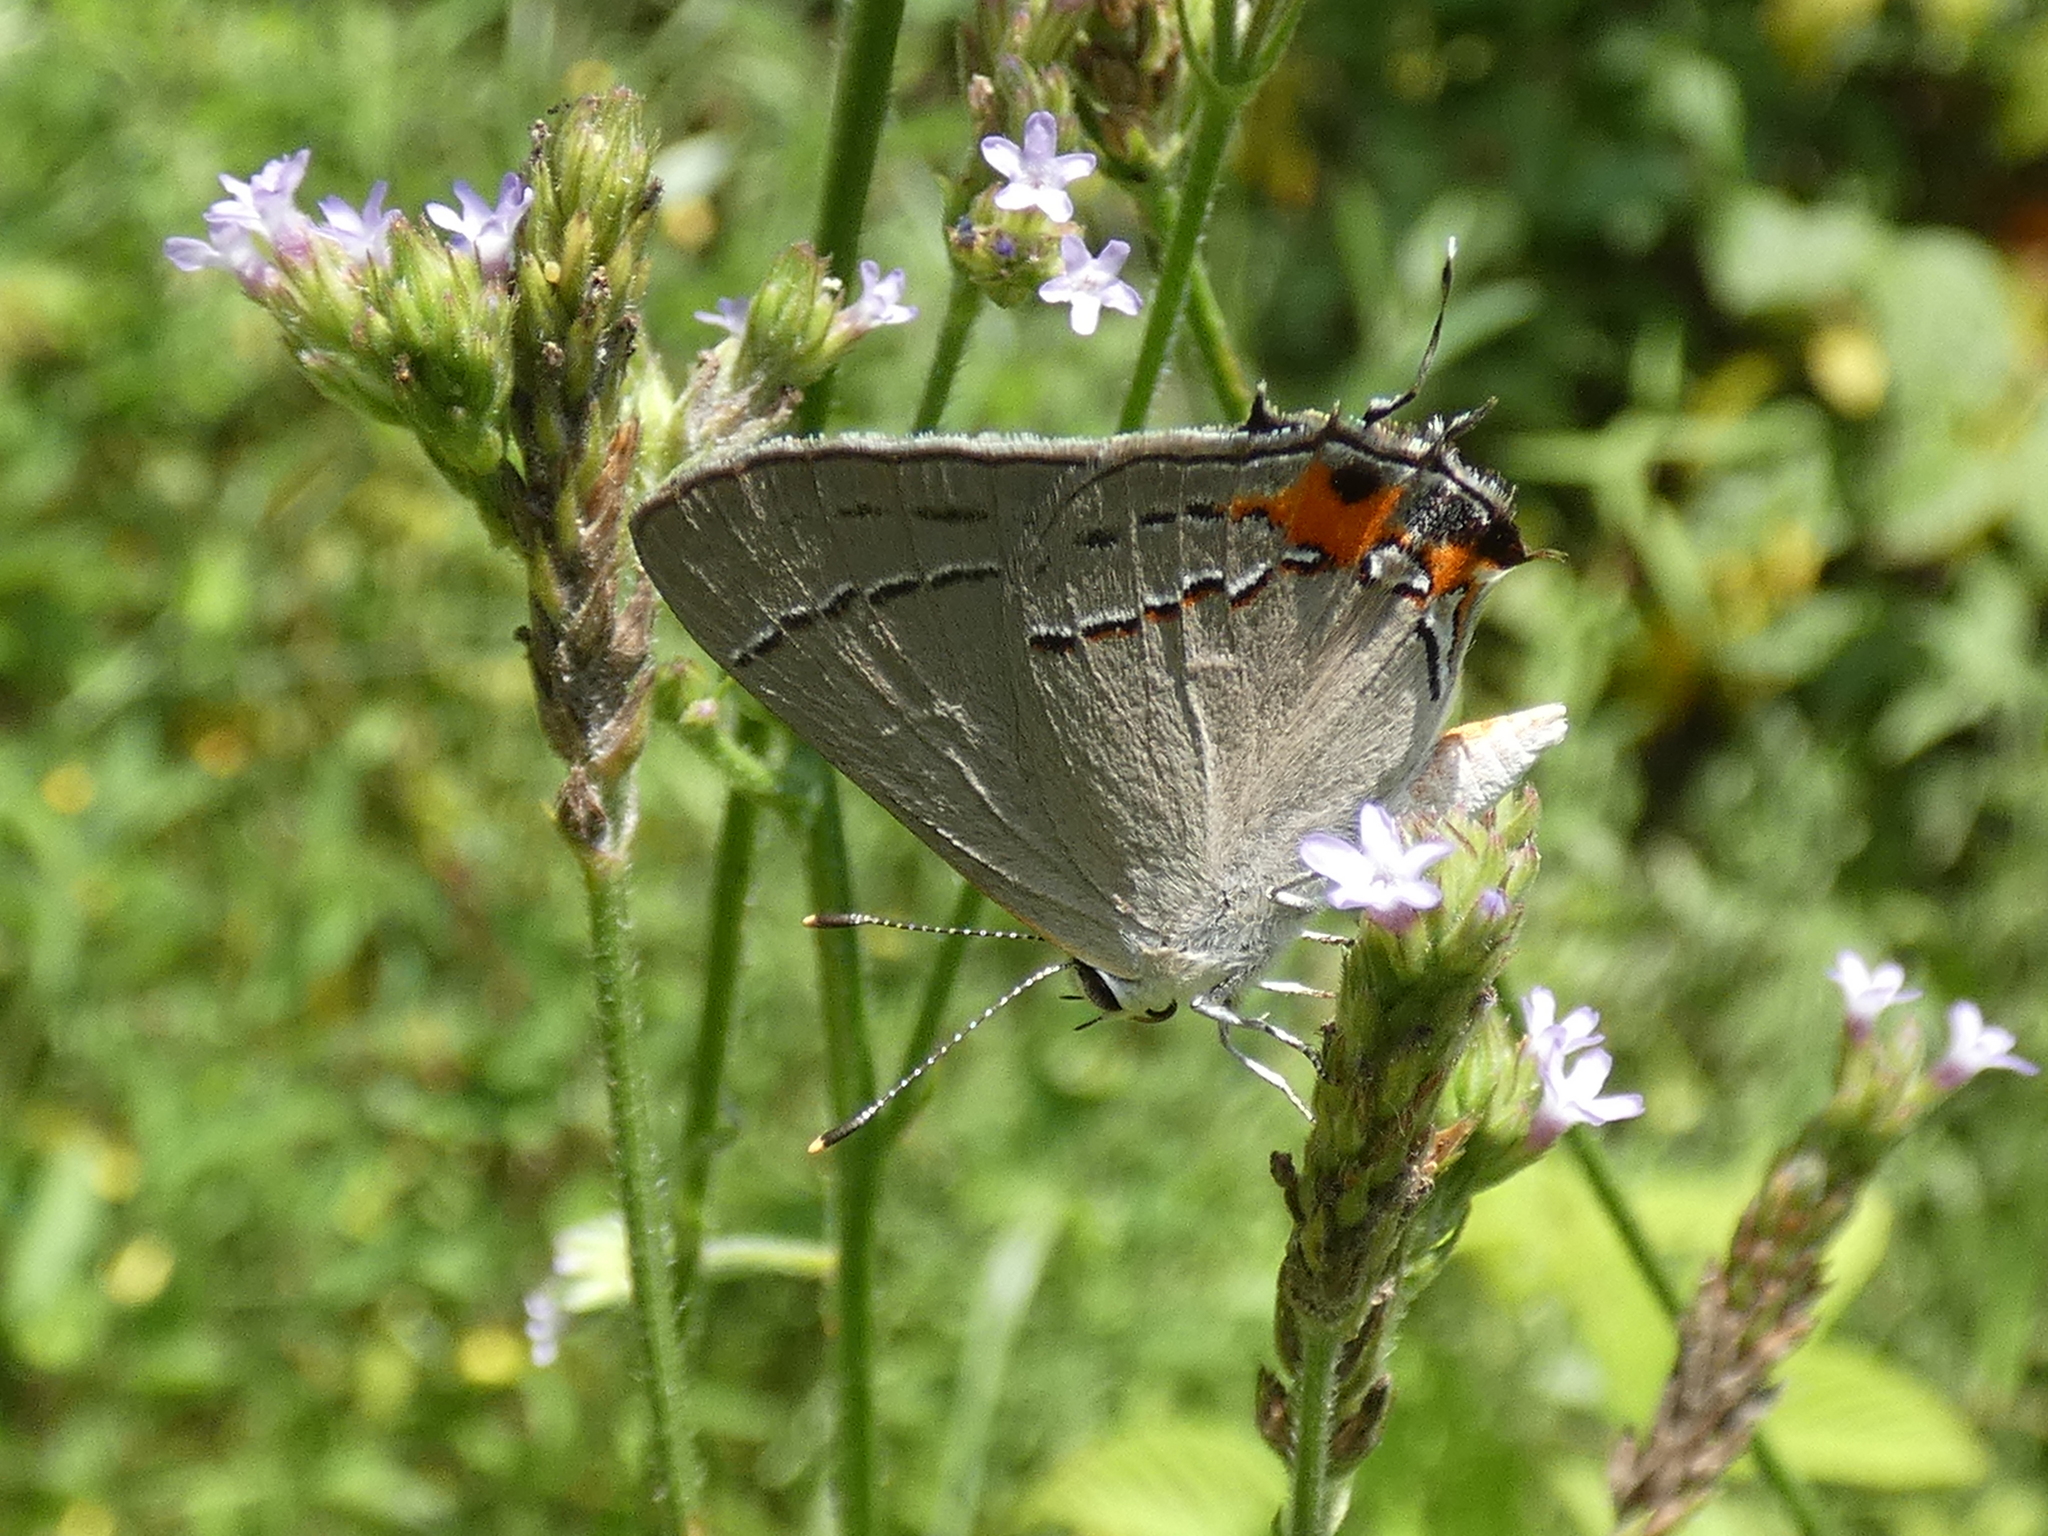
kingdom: Animalia
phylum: Arthropoda
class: Insecta
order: Lepidoptera
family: Lycaenidae
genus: Strymon
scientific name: Strymon melinus
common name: Gray hairstreak
